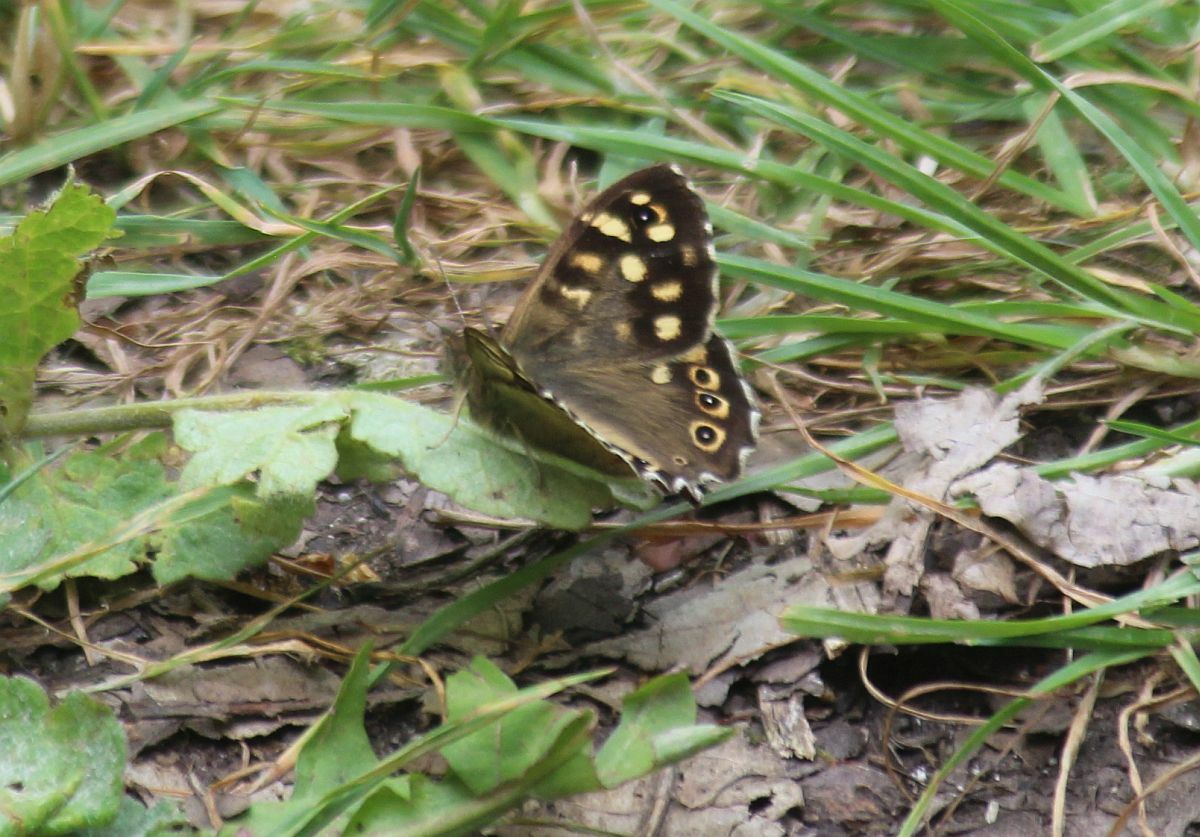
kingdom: Animalia
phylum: Arthropoda
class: Insecta
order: Lepidoptera
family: Nymphalidae
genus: Pararge
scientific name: Pararge aegeria
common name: Speckled wood
